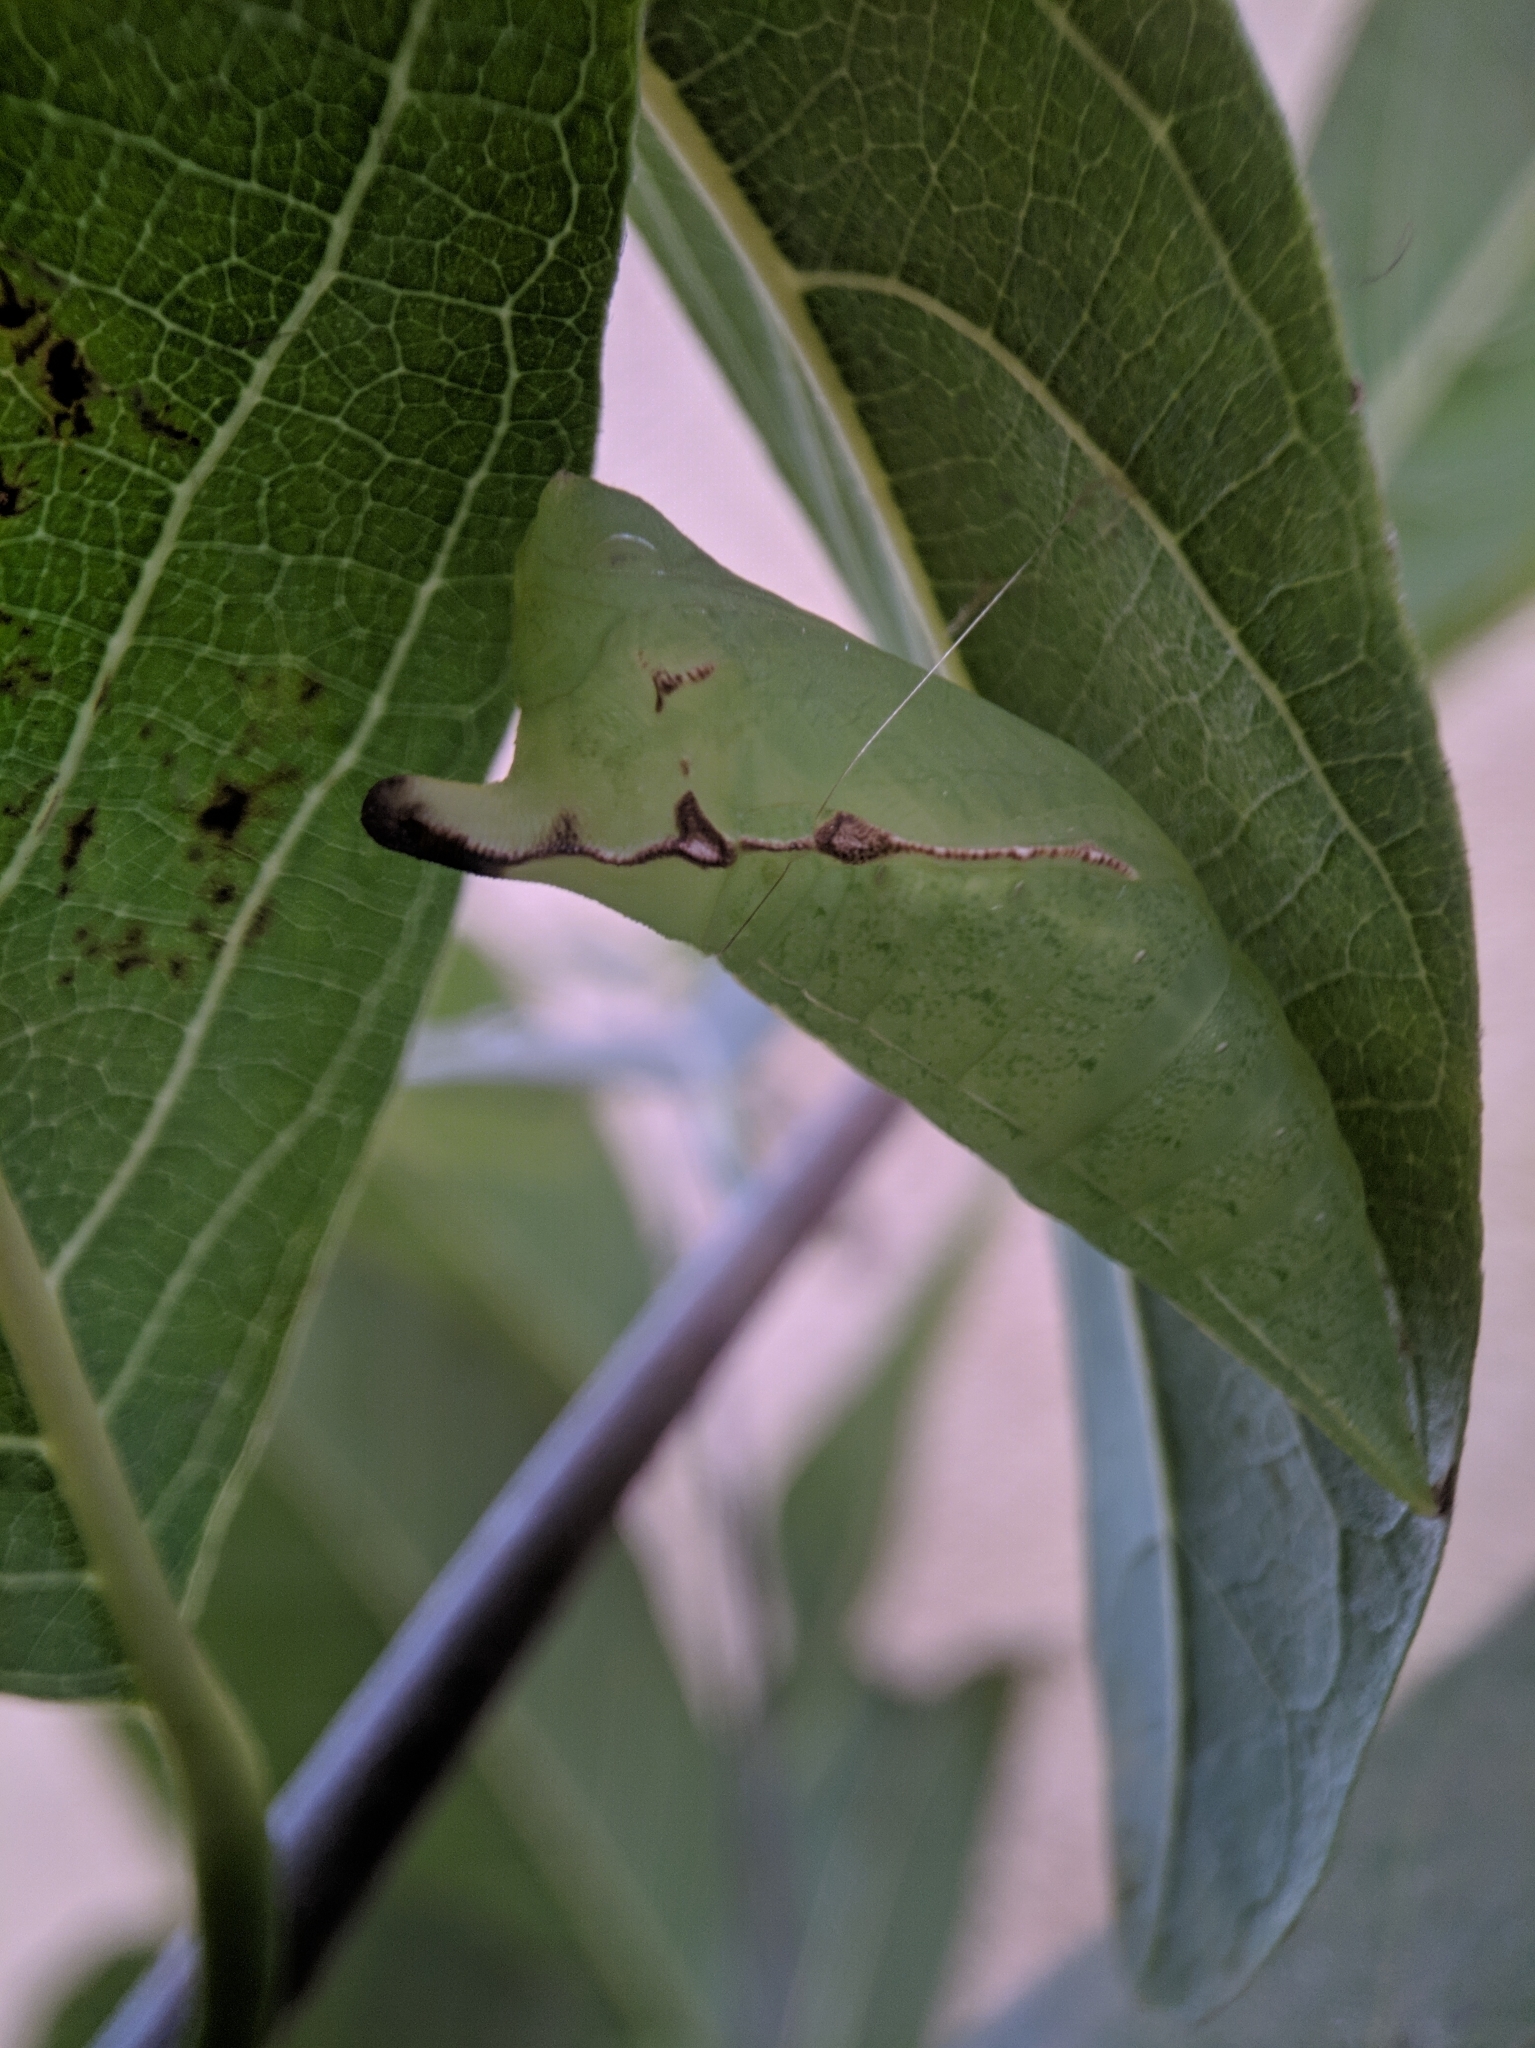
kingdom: Animalia
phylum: Arthropoda
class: Insecta
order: Lepidoptera
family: Papilionidae
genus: Graphium
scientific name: Graphium agamemnon
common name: Tailed jay
